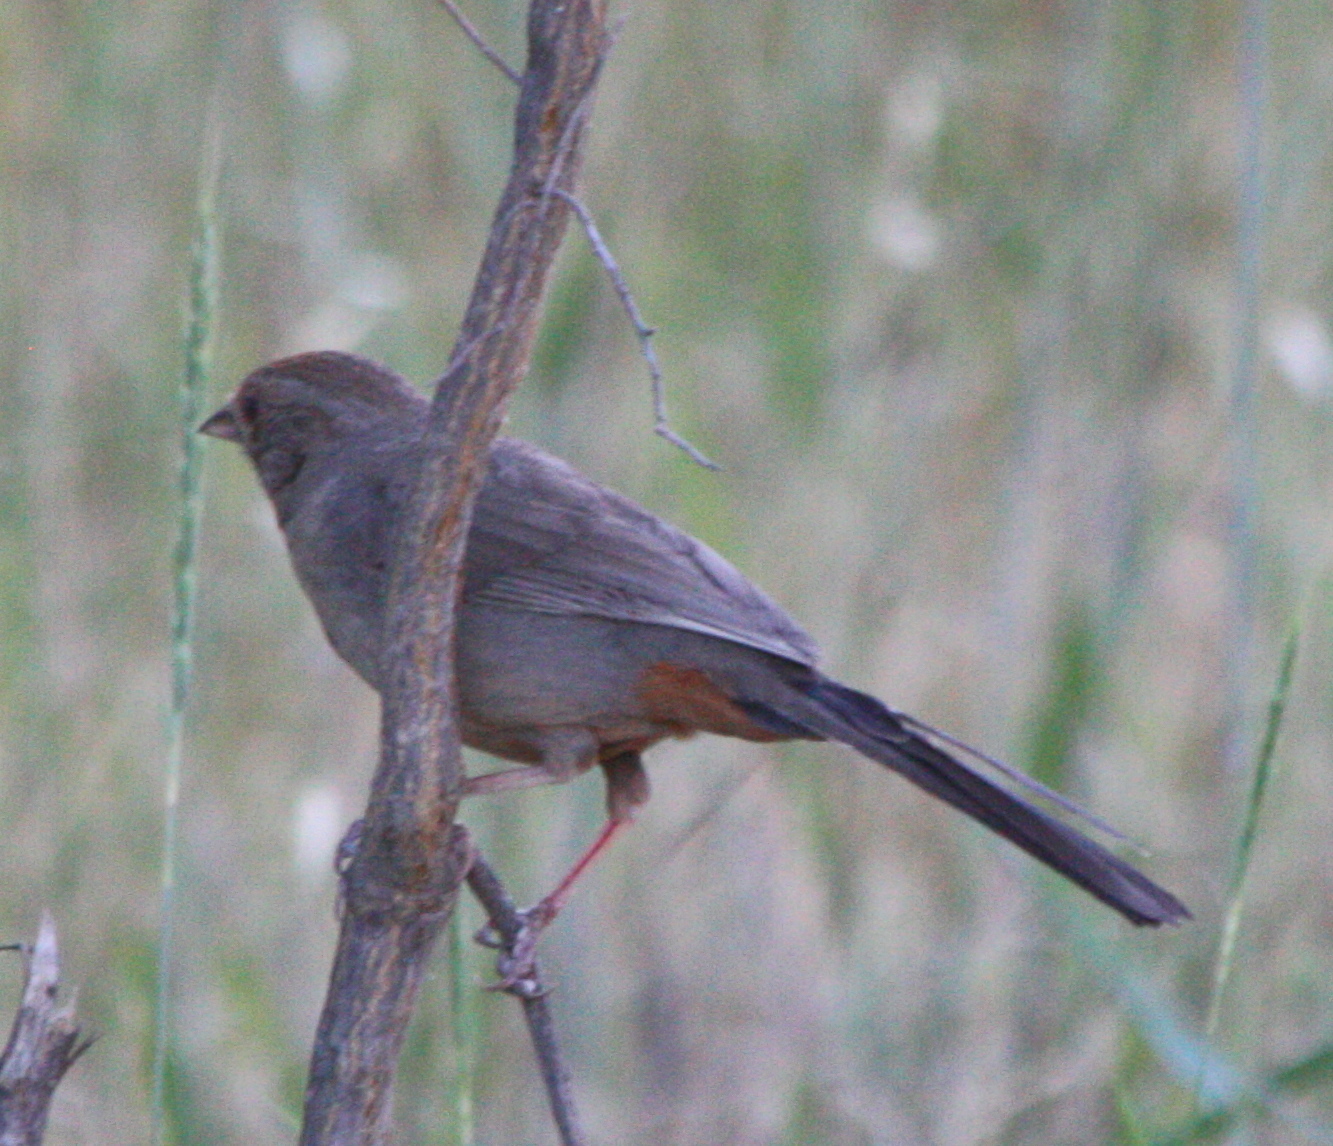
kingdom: Animalia
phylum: Chordata
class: Aves
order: Passeriformes
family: Passerellidae
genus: Melozone
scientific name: Melozone crissalis
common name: California towhee
